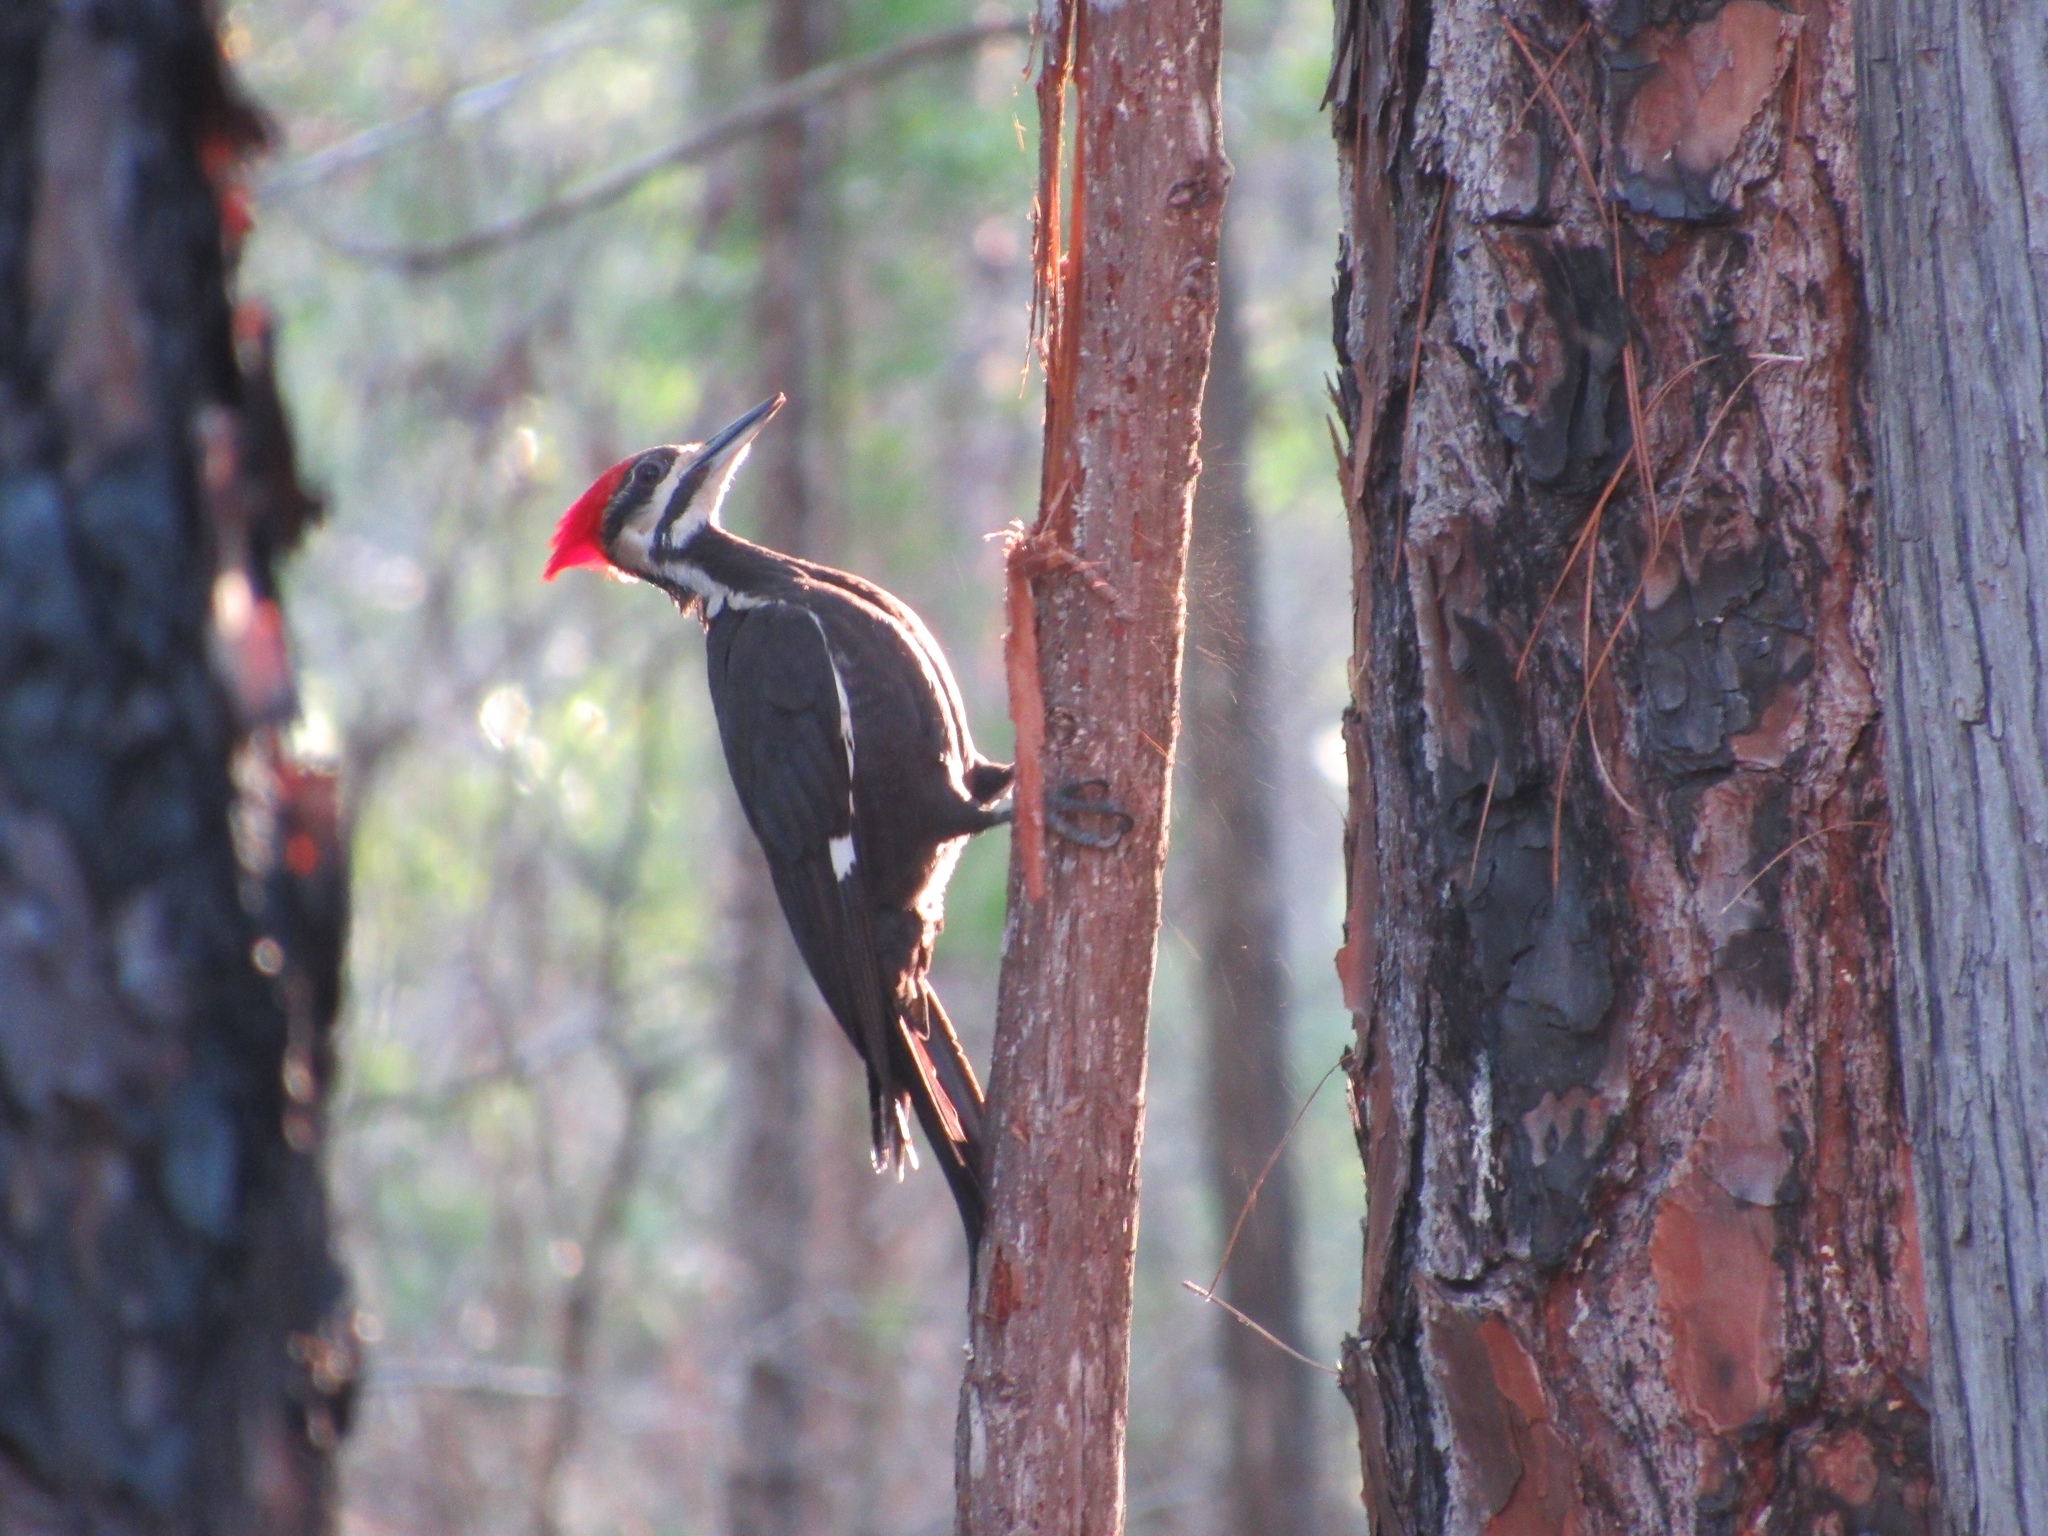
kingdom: Animalia
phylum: Chordata
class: Aves
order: Piciformes
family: Picidae
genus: Dryocopus
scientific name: Dryocopus pileatus
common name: Pileated woodpecker
